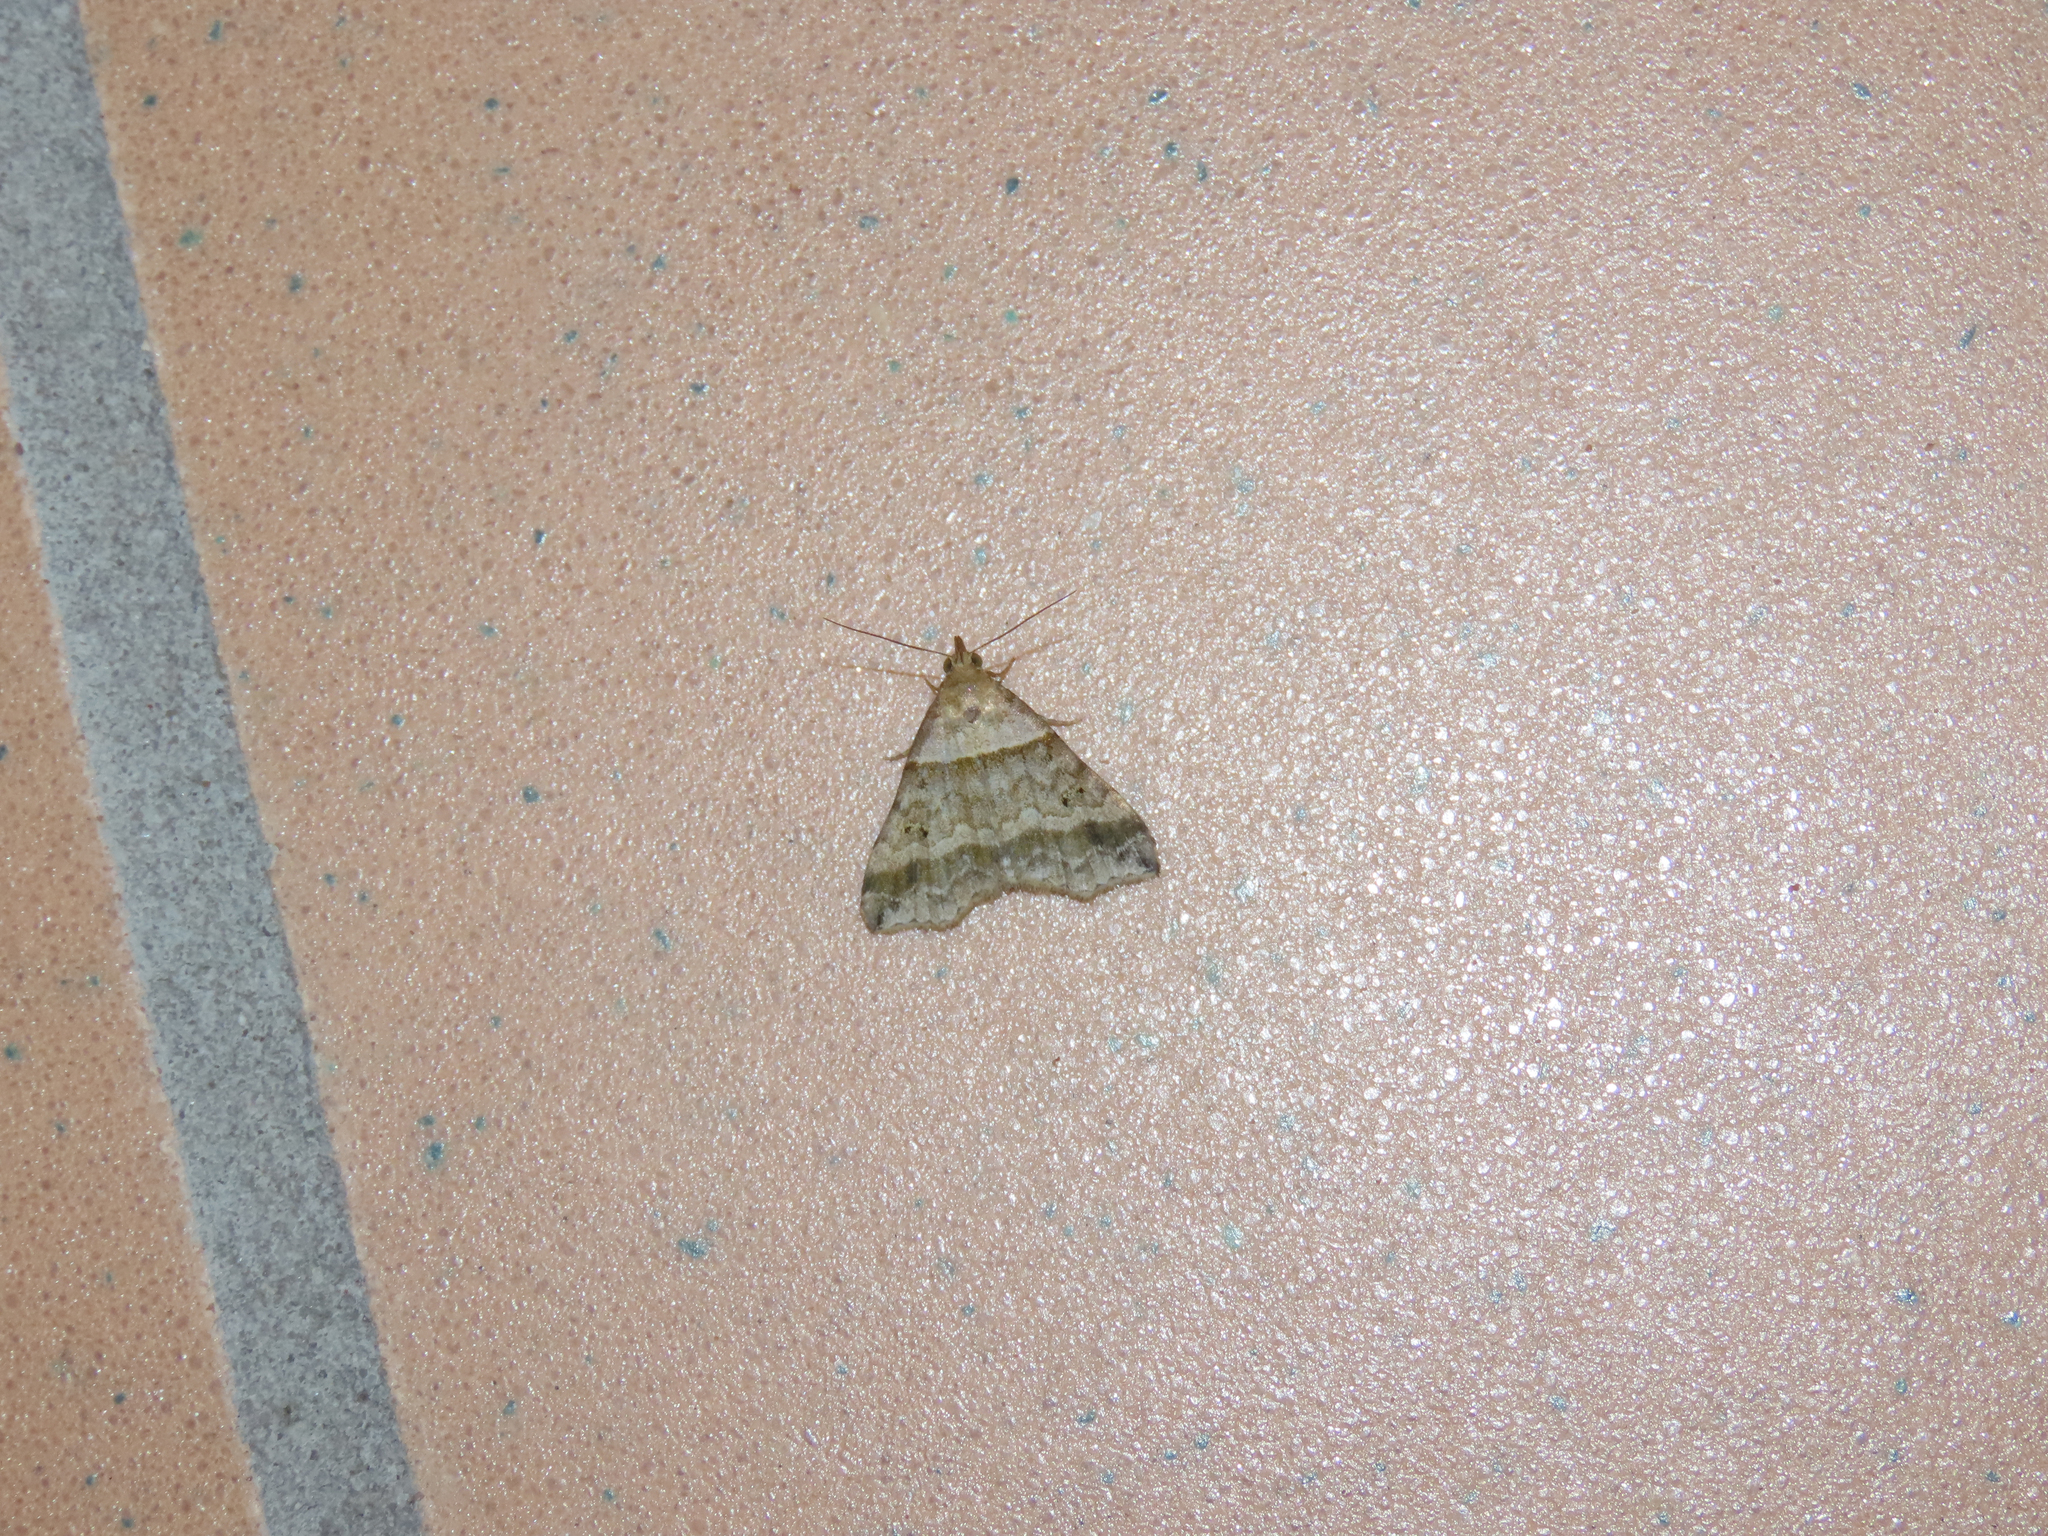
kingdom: Animalia
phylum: Arthropoda
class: Insecta
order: Lepidoptera
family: Erebidae
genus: Phaeolita
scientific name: Phaeolita pyramusalis
